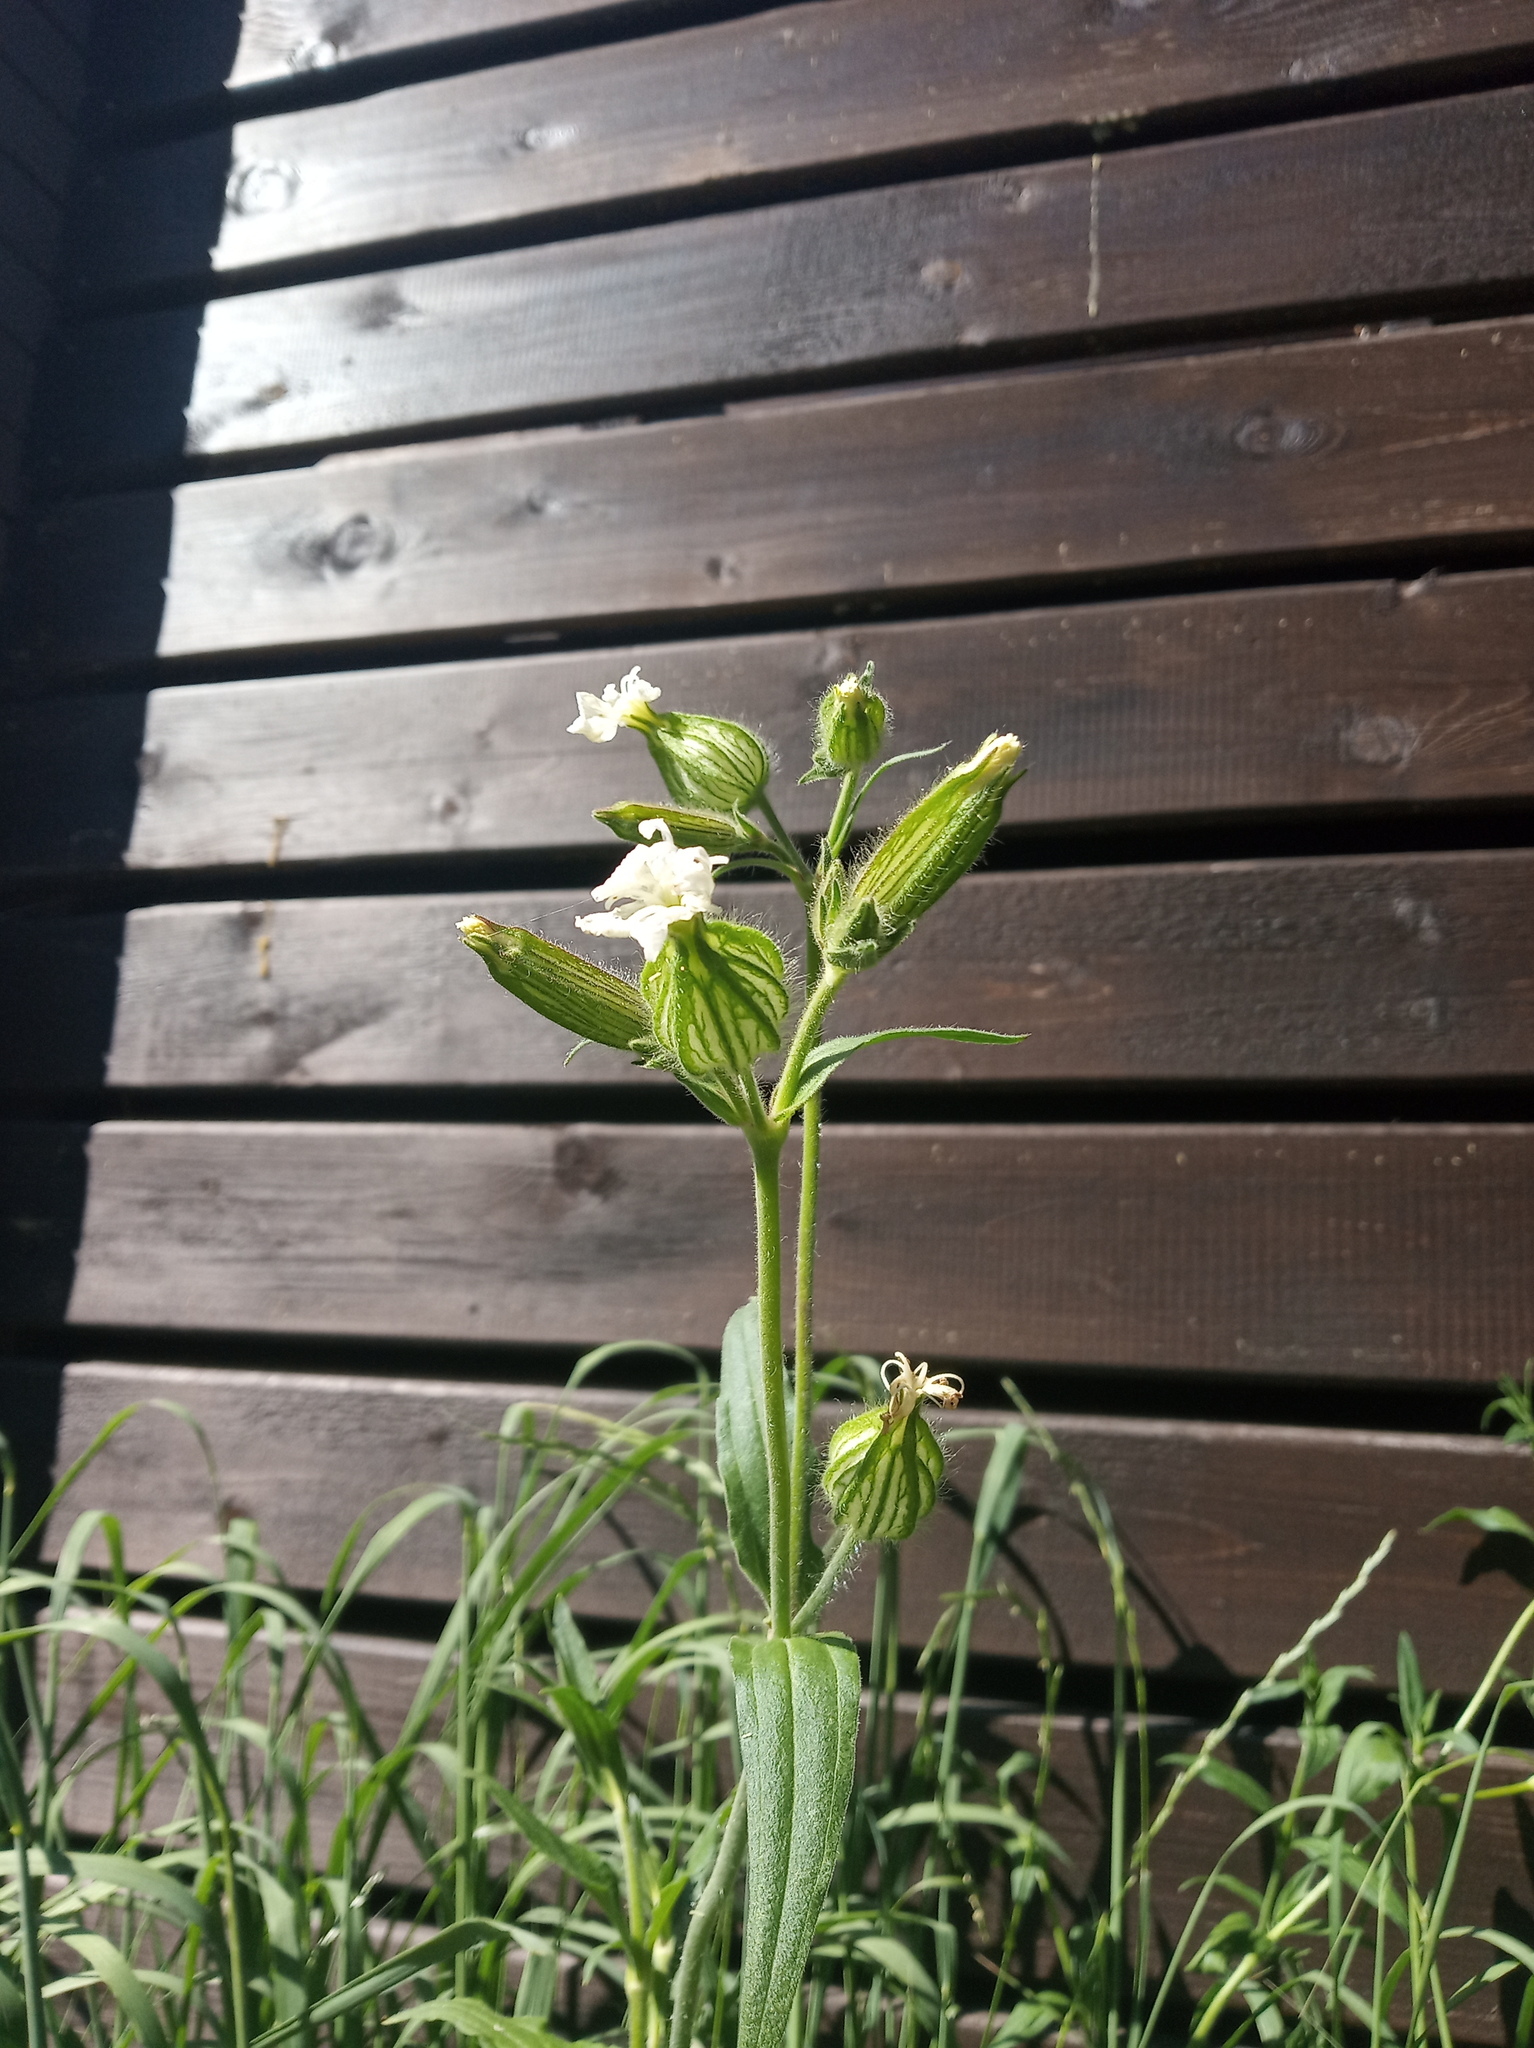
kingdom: Plantae
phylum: Tracheophyta
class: Magnoliopsida
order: Caryophyllales
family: Caryophyllaceae
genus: Silene
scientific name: Silene latifolia
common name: White campion
